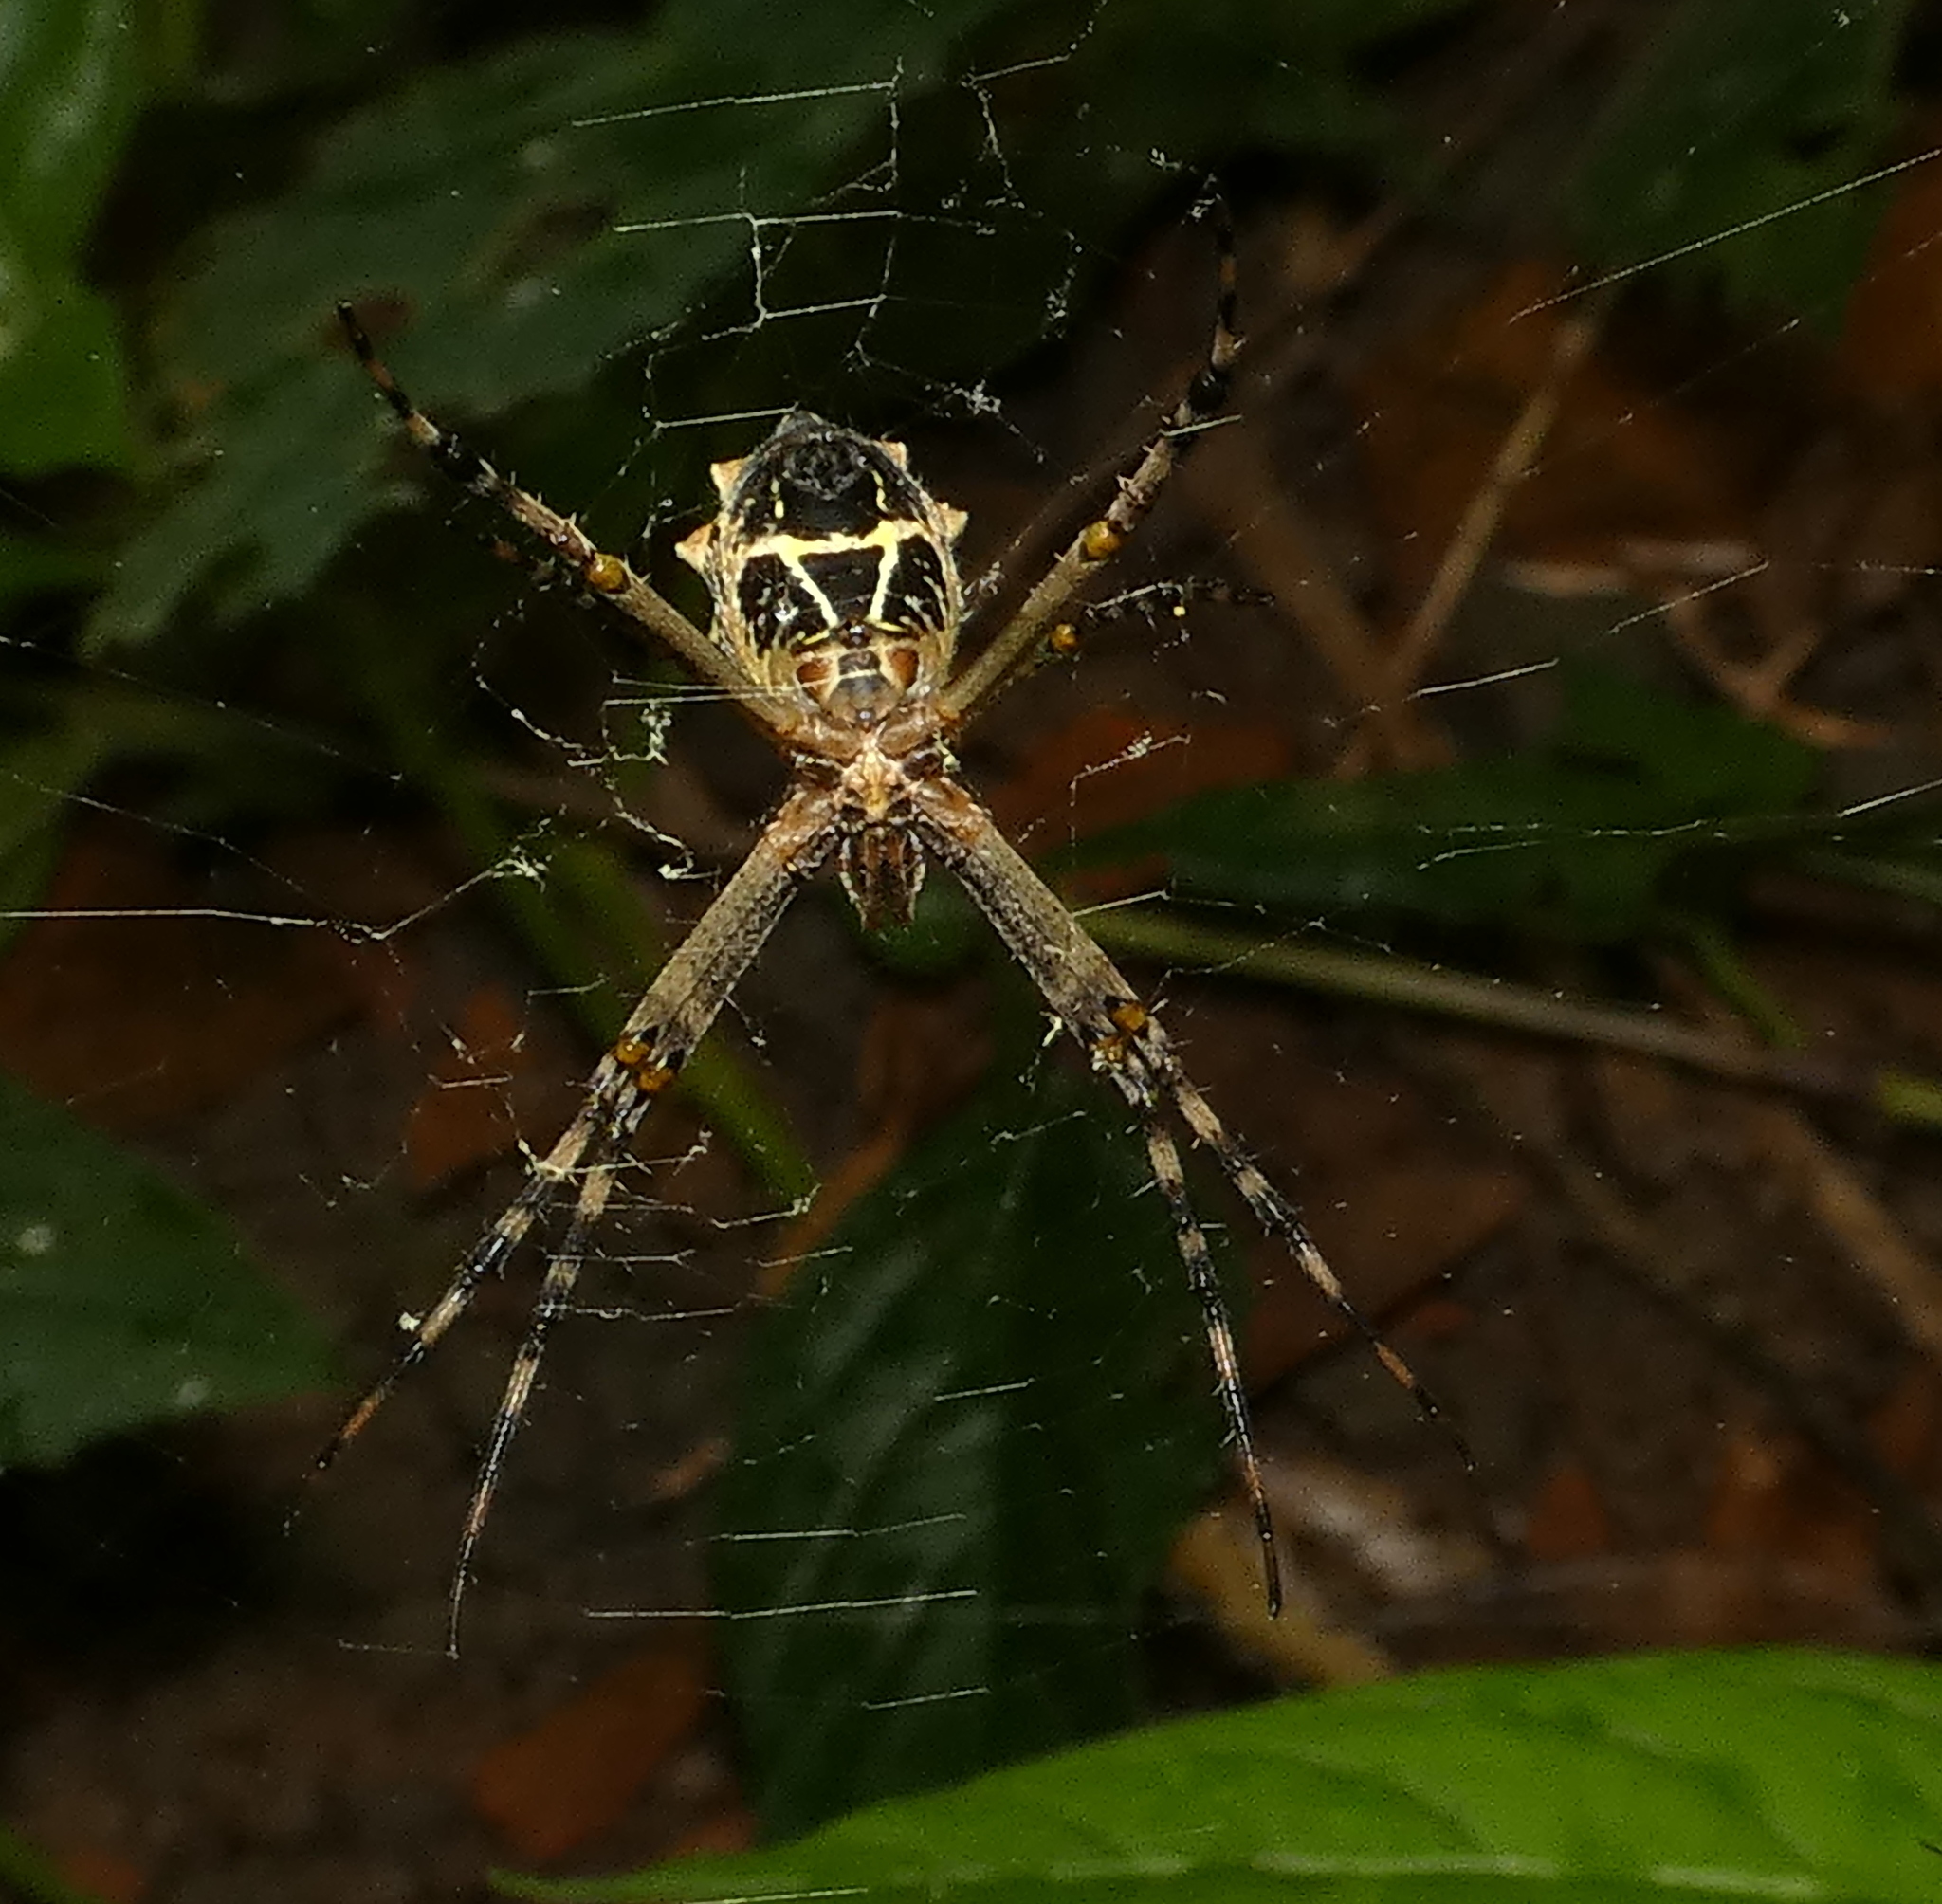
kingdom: Animalia
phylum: Arthropoda
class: Arachnida
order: Araneae
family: Araneidae
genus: Argiope
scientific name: Argiope argentata
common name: Orb weavers
